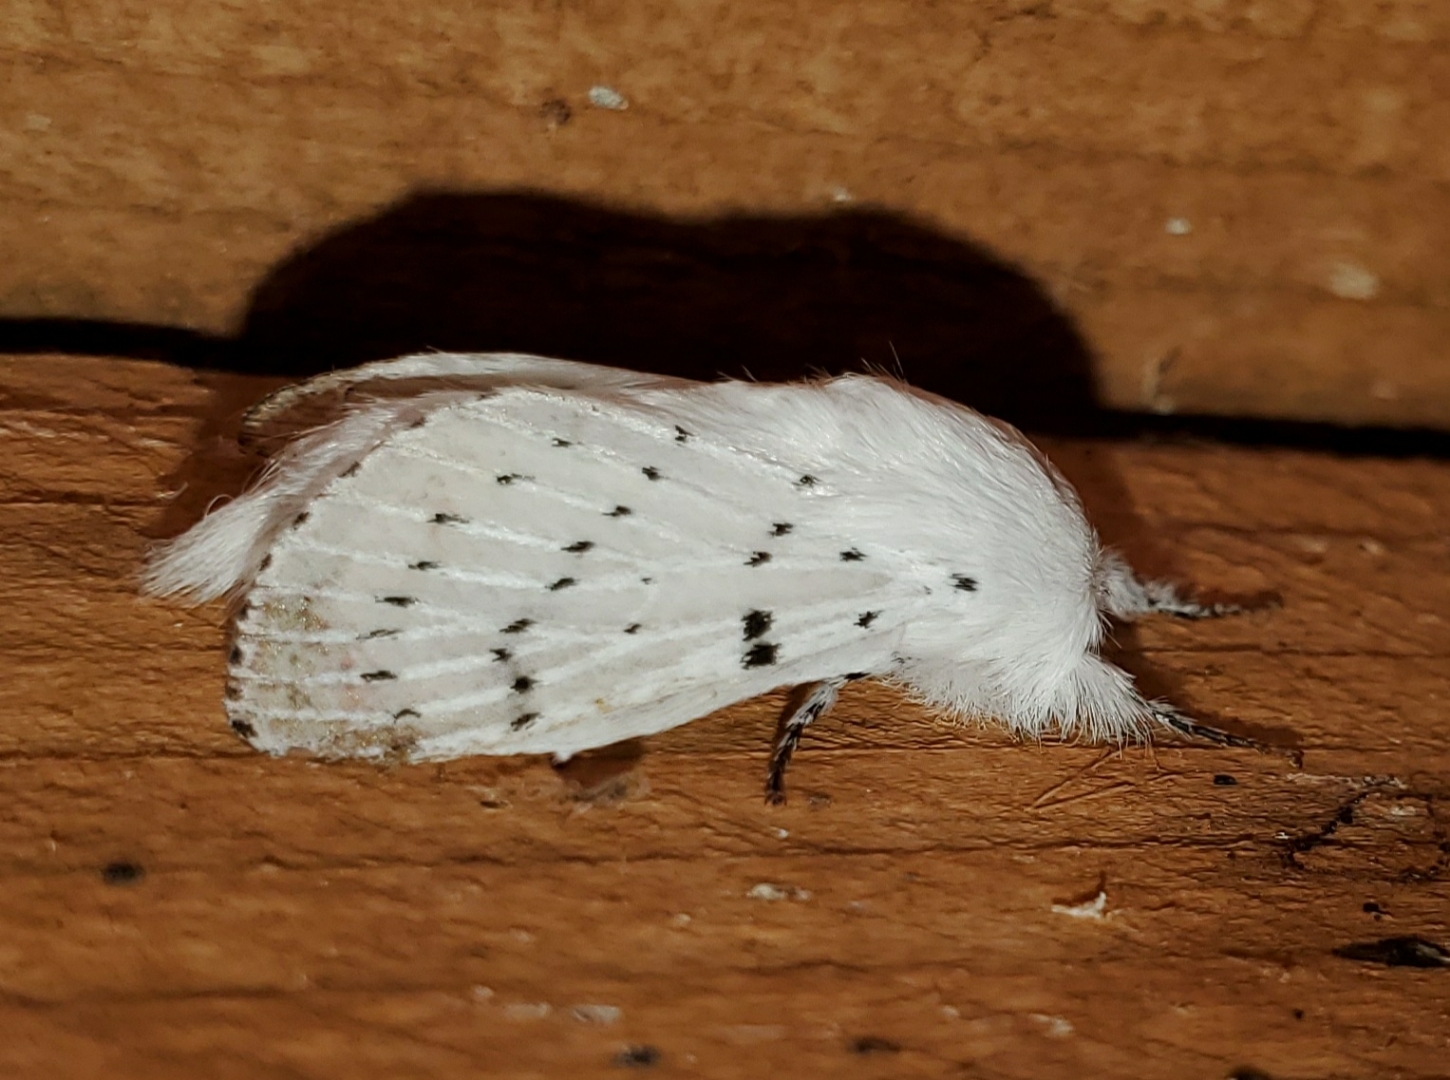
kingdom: Animalia
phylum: Arthropoda
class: Insecta
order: Lepidoptera
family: Lasiocampidae
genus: Artace
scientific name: Artace cribrarius
